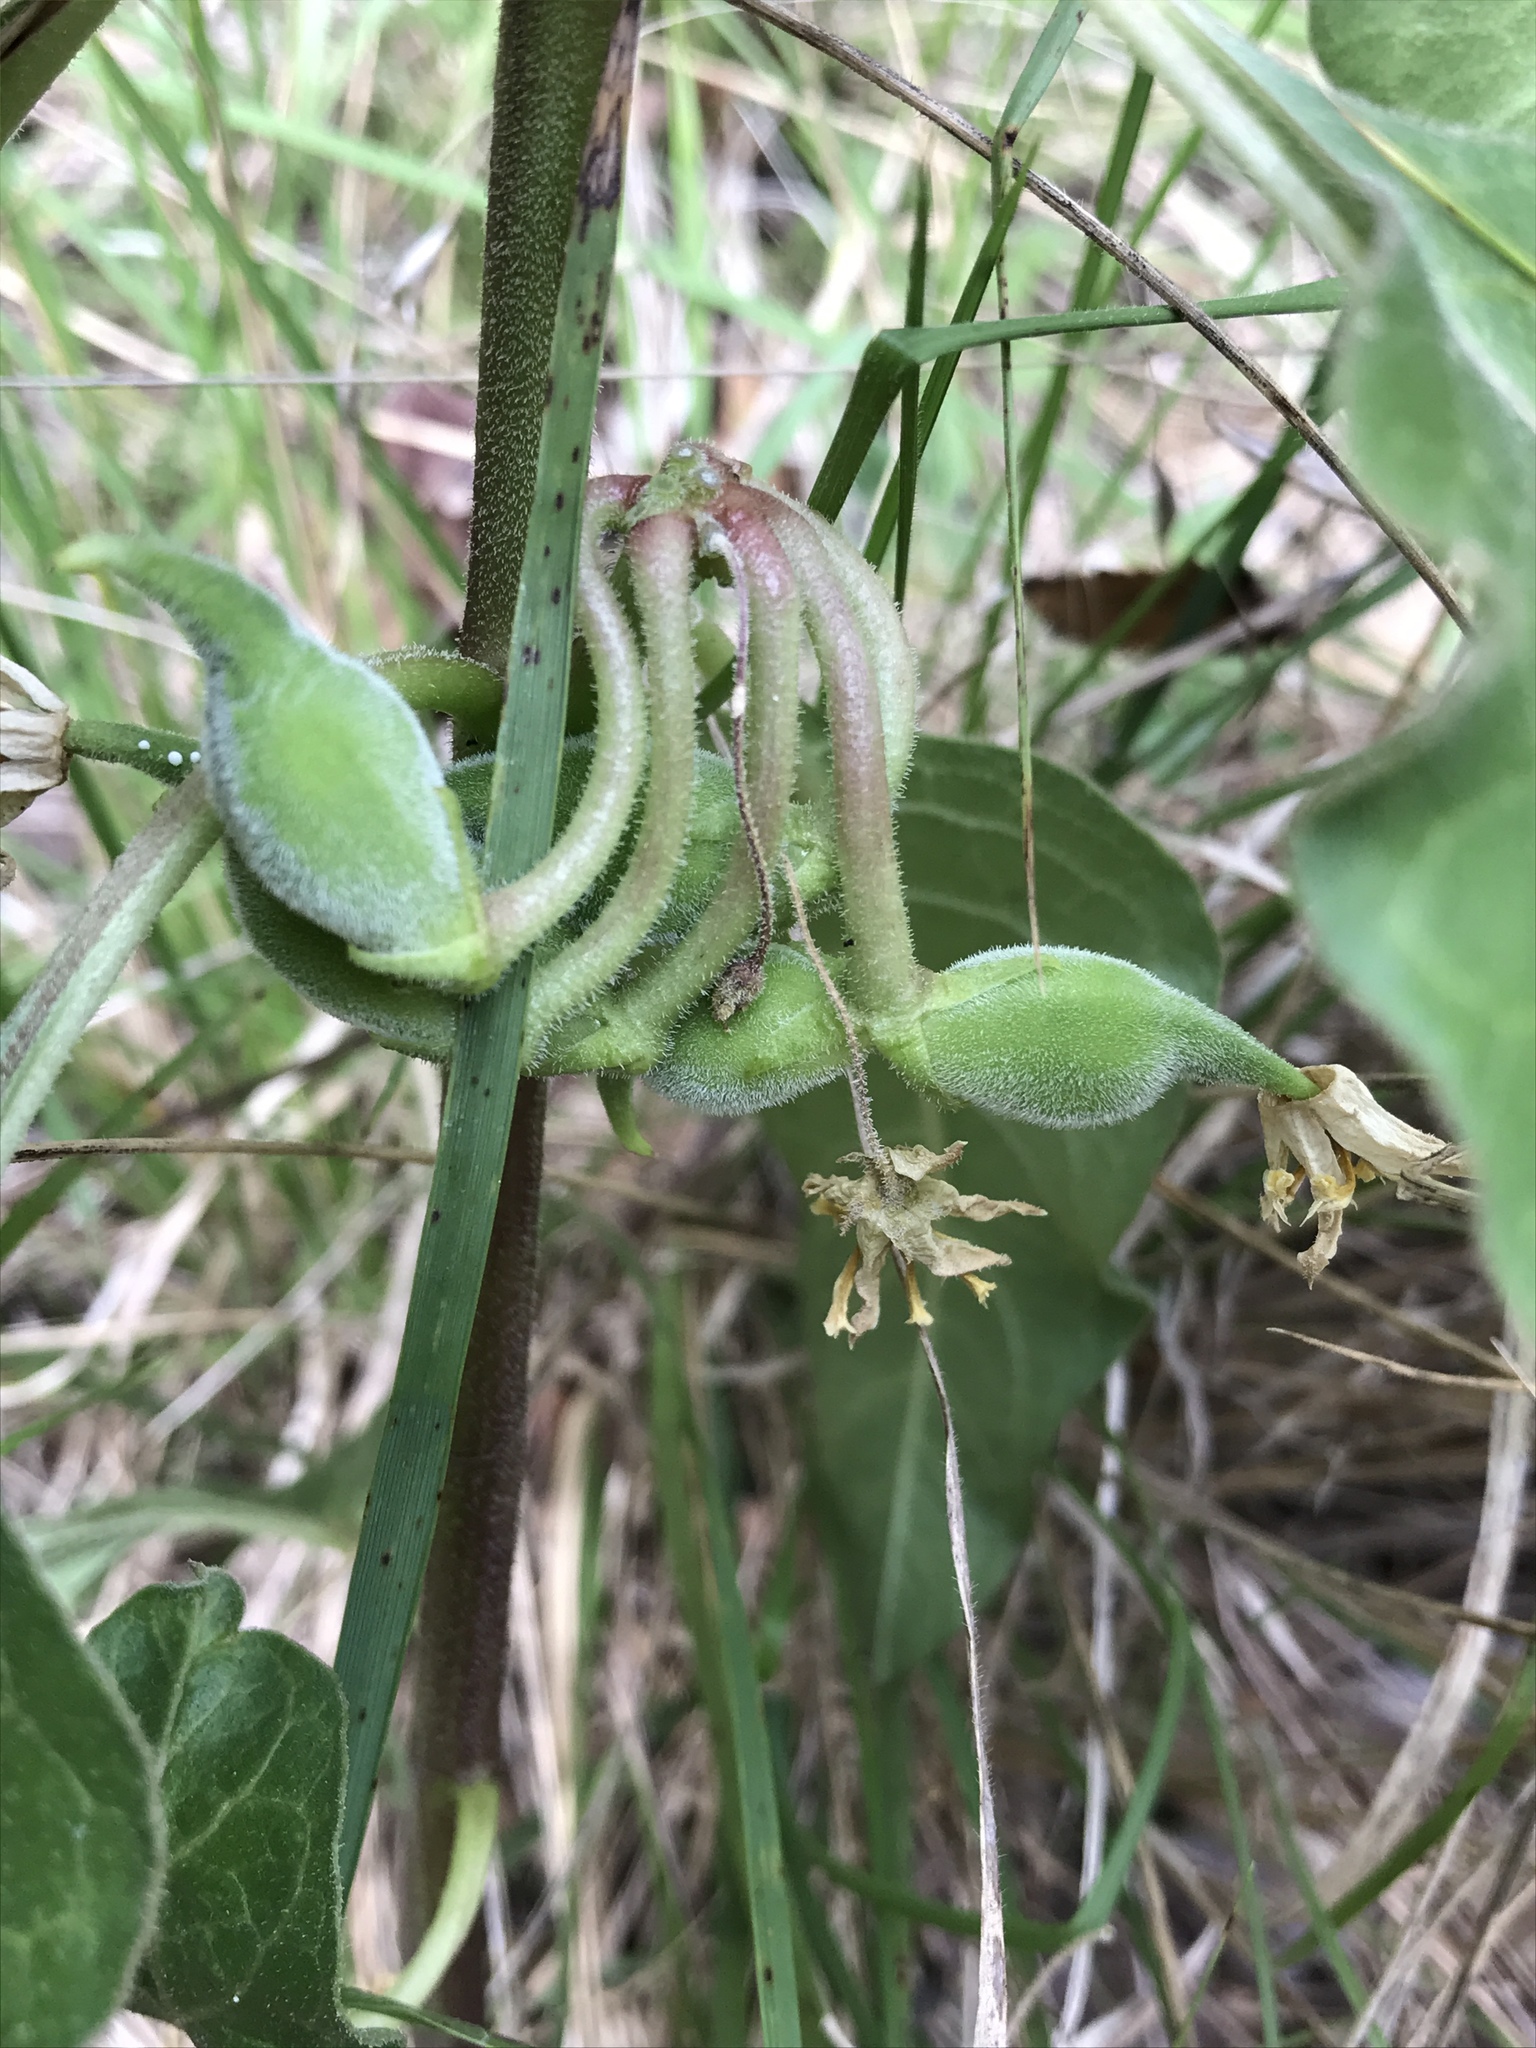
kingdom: Plantae
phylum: Tracheophyta
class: Magnoliopsida
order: Gentianales
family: Apocynaceae
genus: Asclepias
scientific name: Asclepias oenotheroides
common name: Zizotes milkweed
